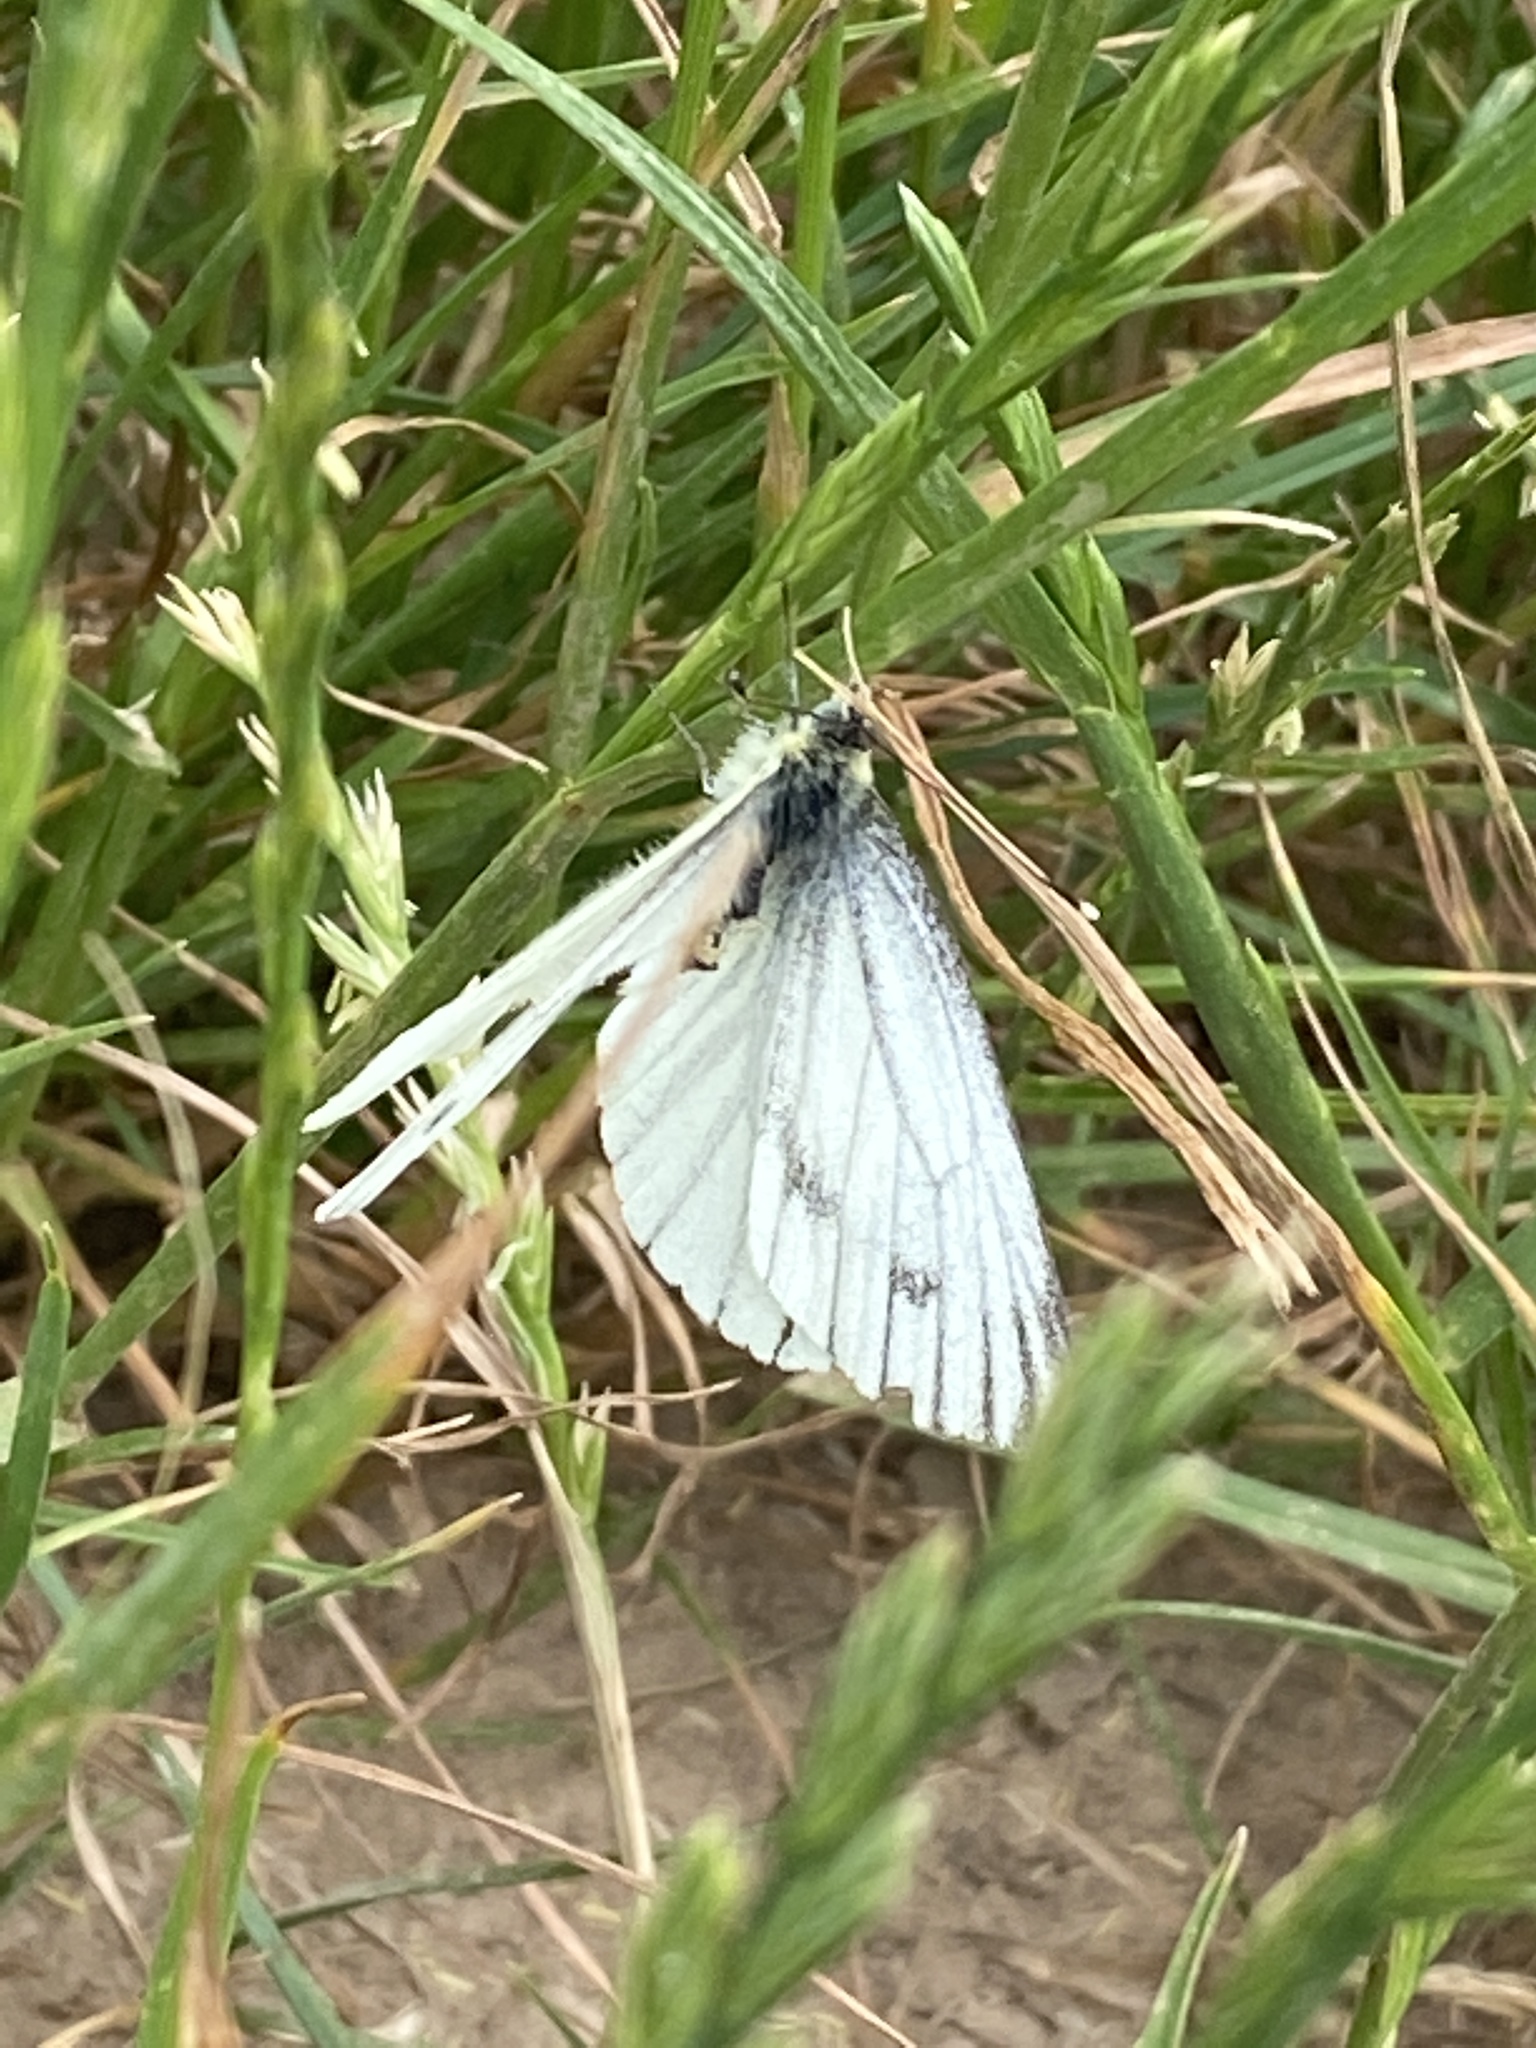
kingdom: Animalia
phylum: Arthropoda
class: Insecta
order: Lepidoptera
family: Pieridae
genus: Pieris
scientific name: Pieris napi
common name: Green-veined white
